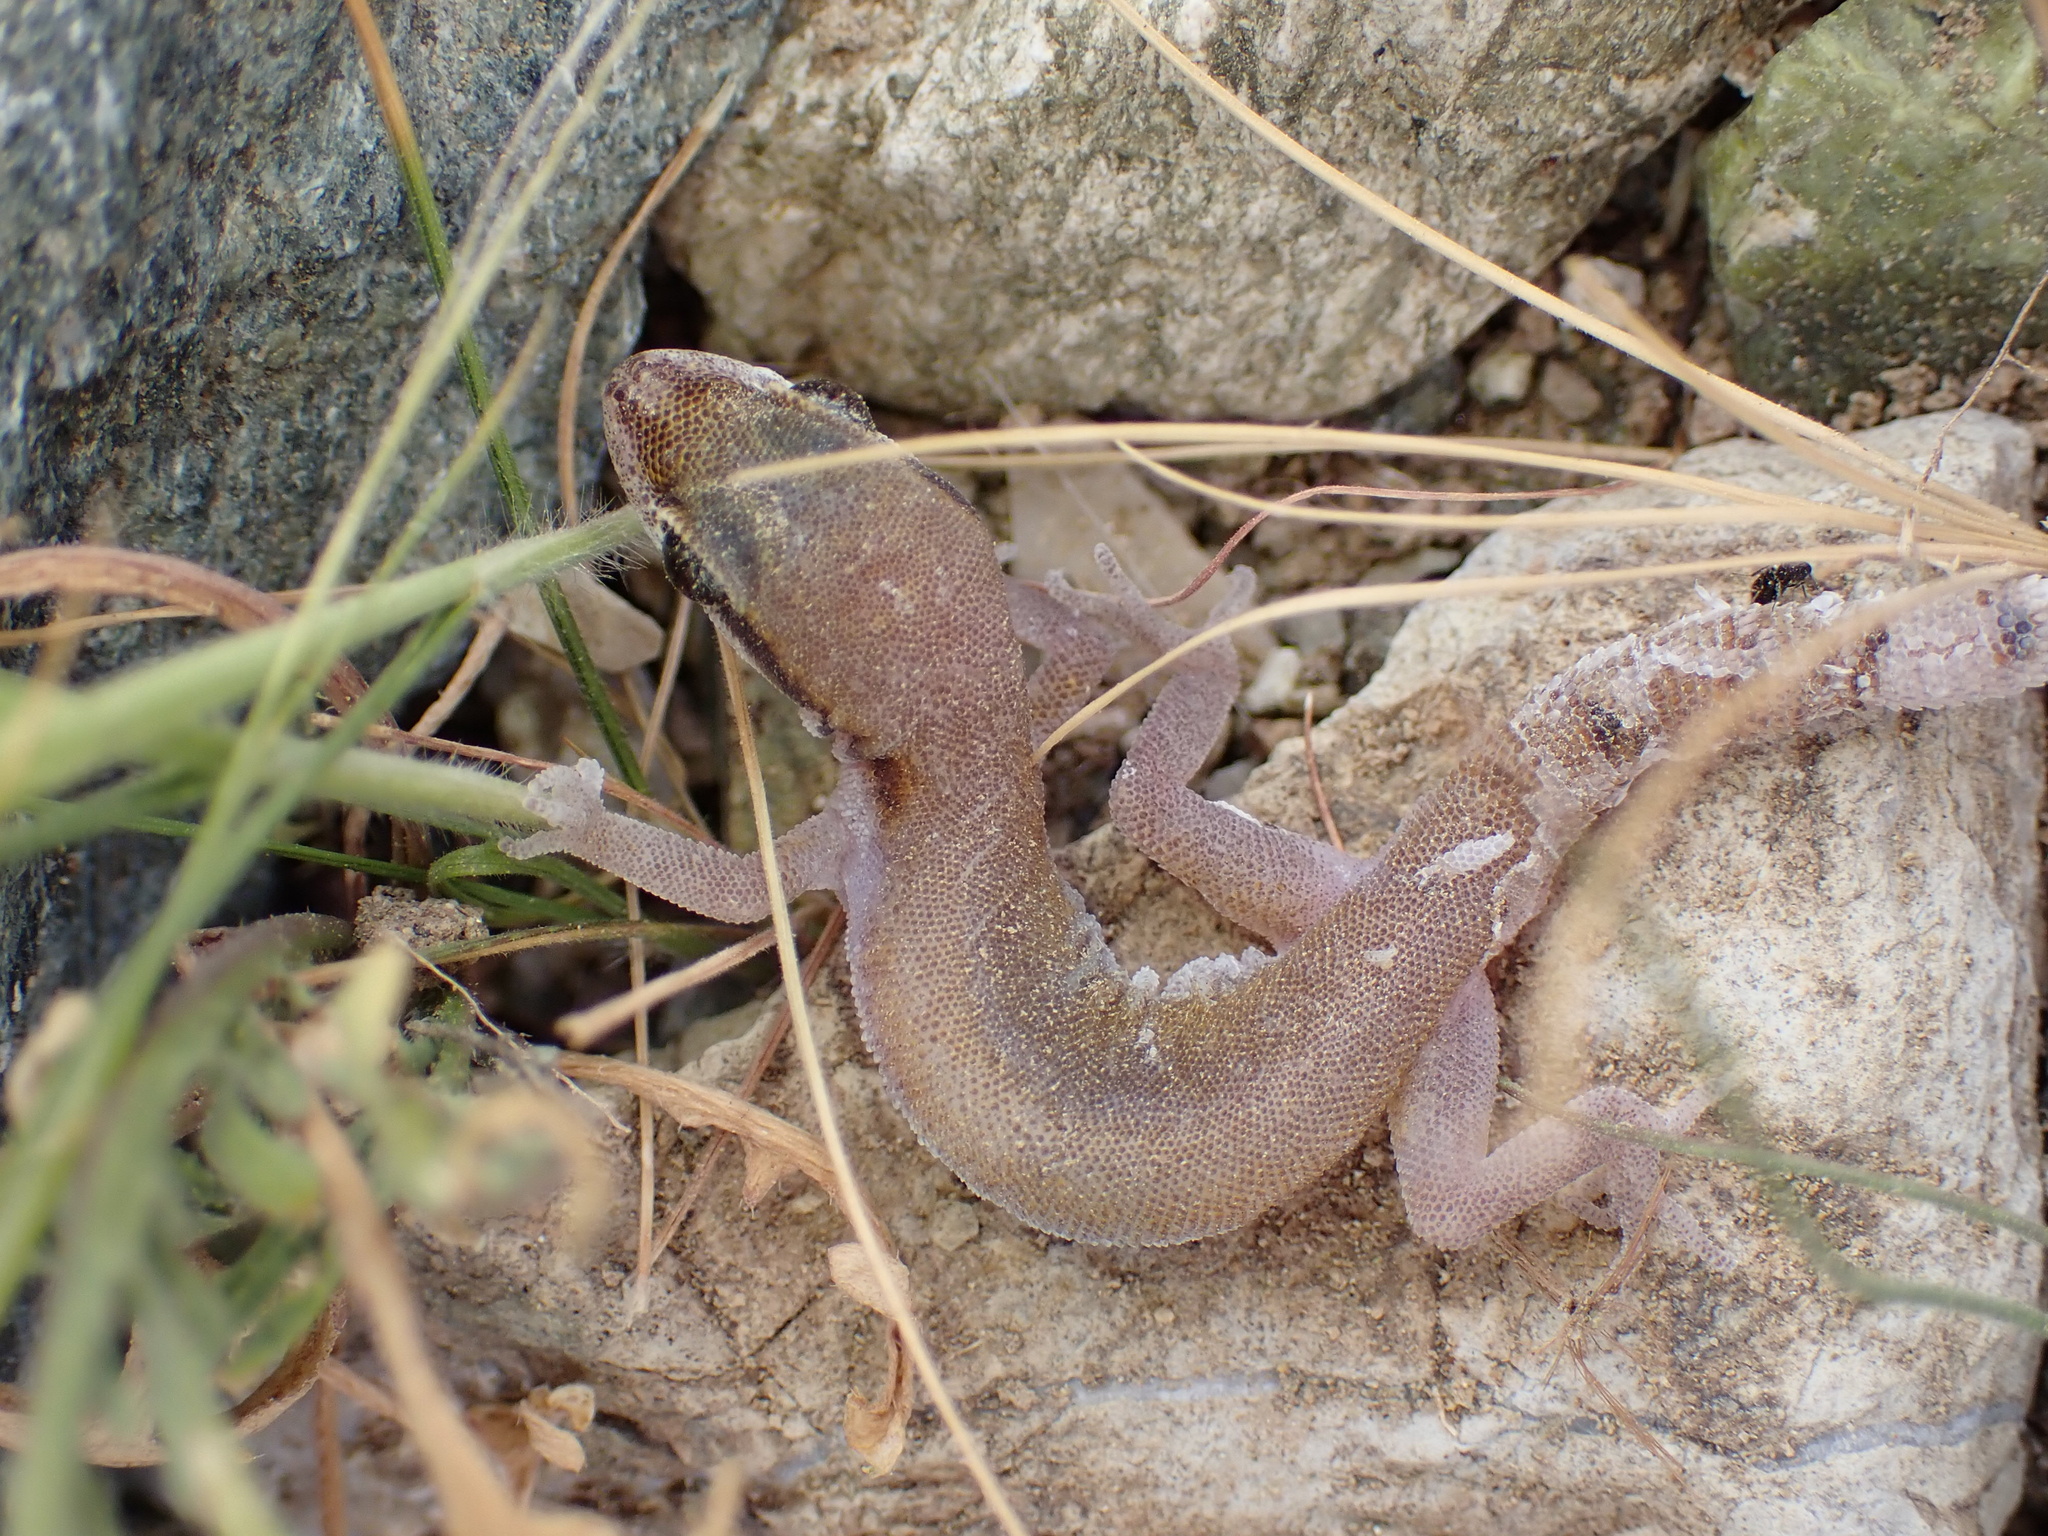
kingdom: Animalia
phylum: Chordata
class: Squamata
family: Gekkonidae
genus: Microgecko
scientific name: Microgecko persicus
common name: Persian dwarf gecko
